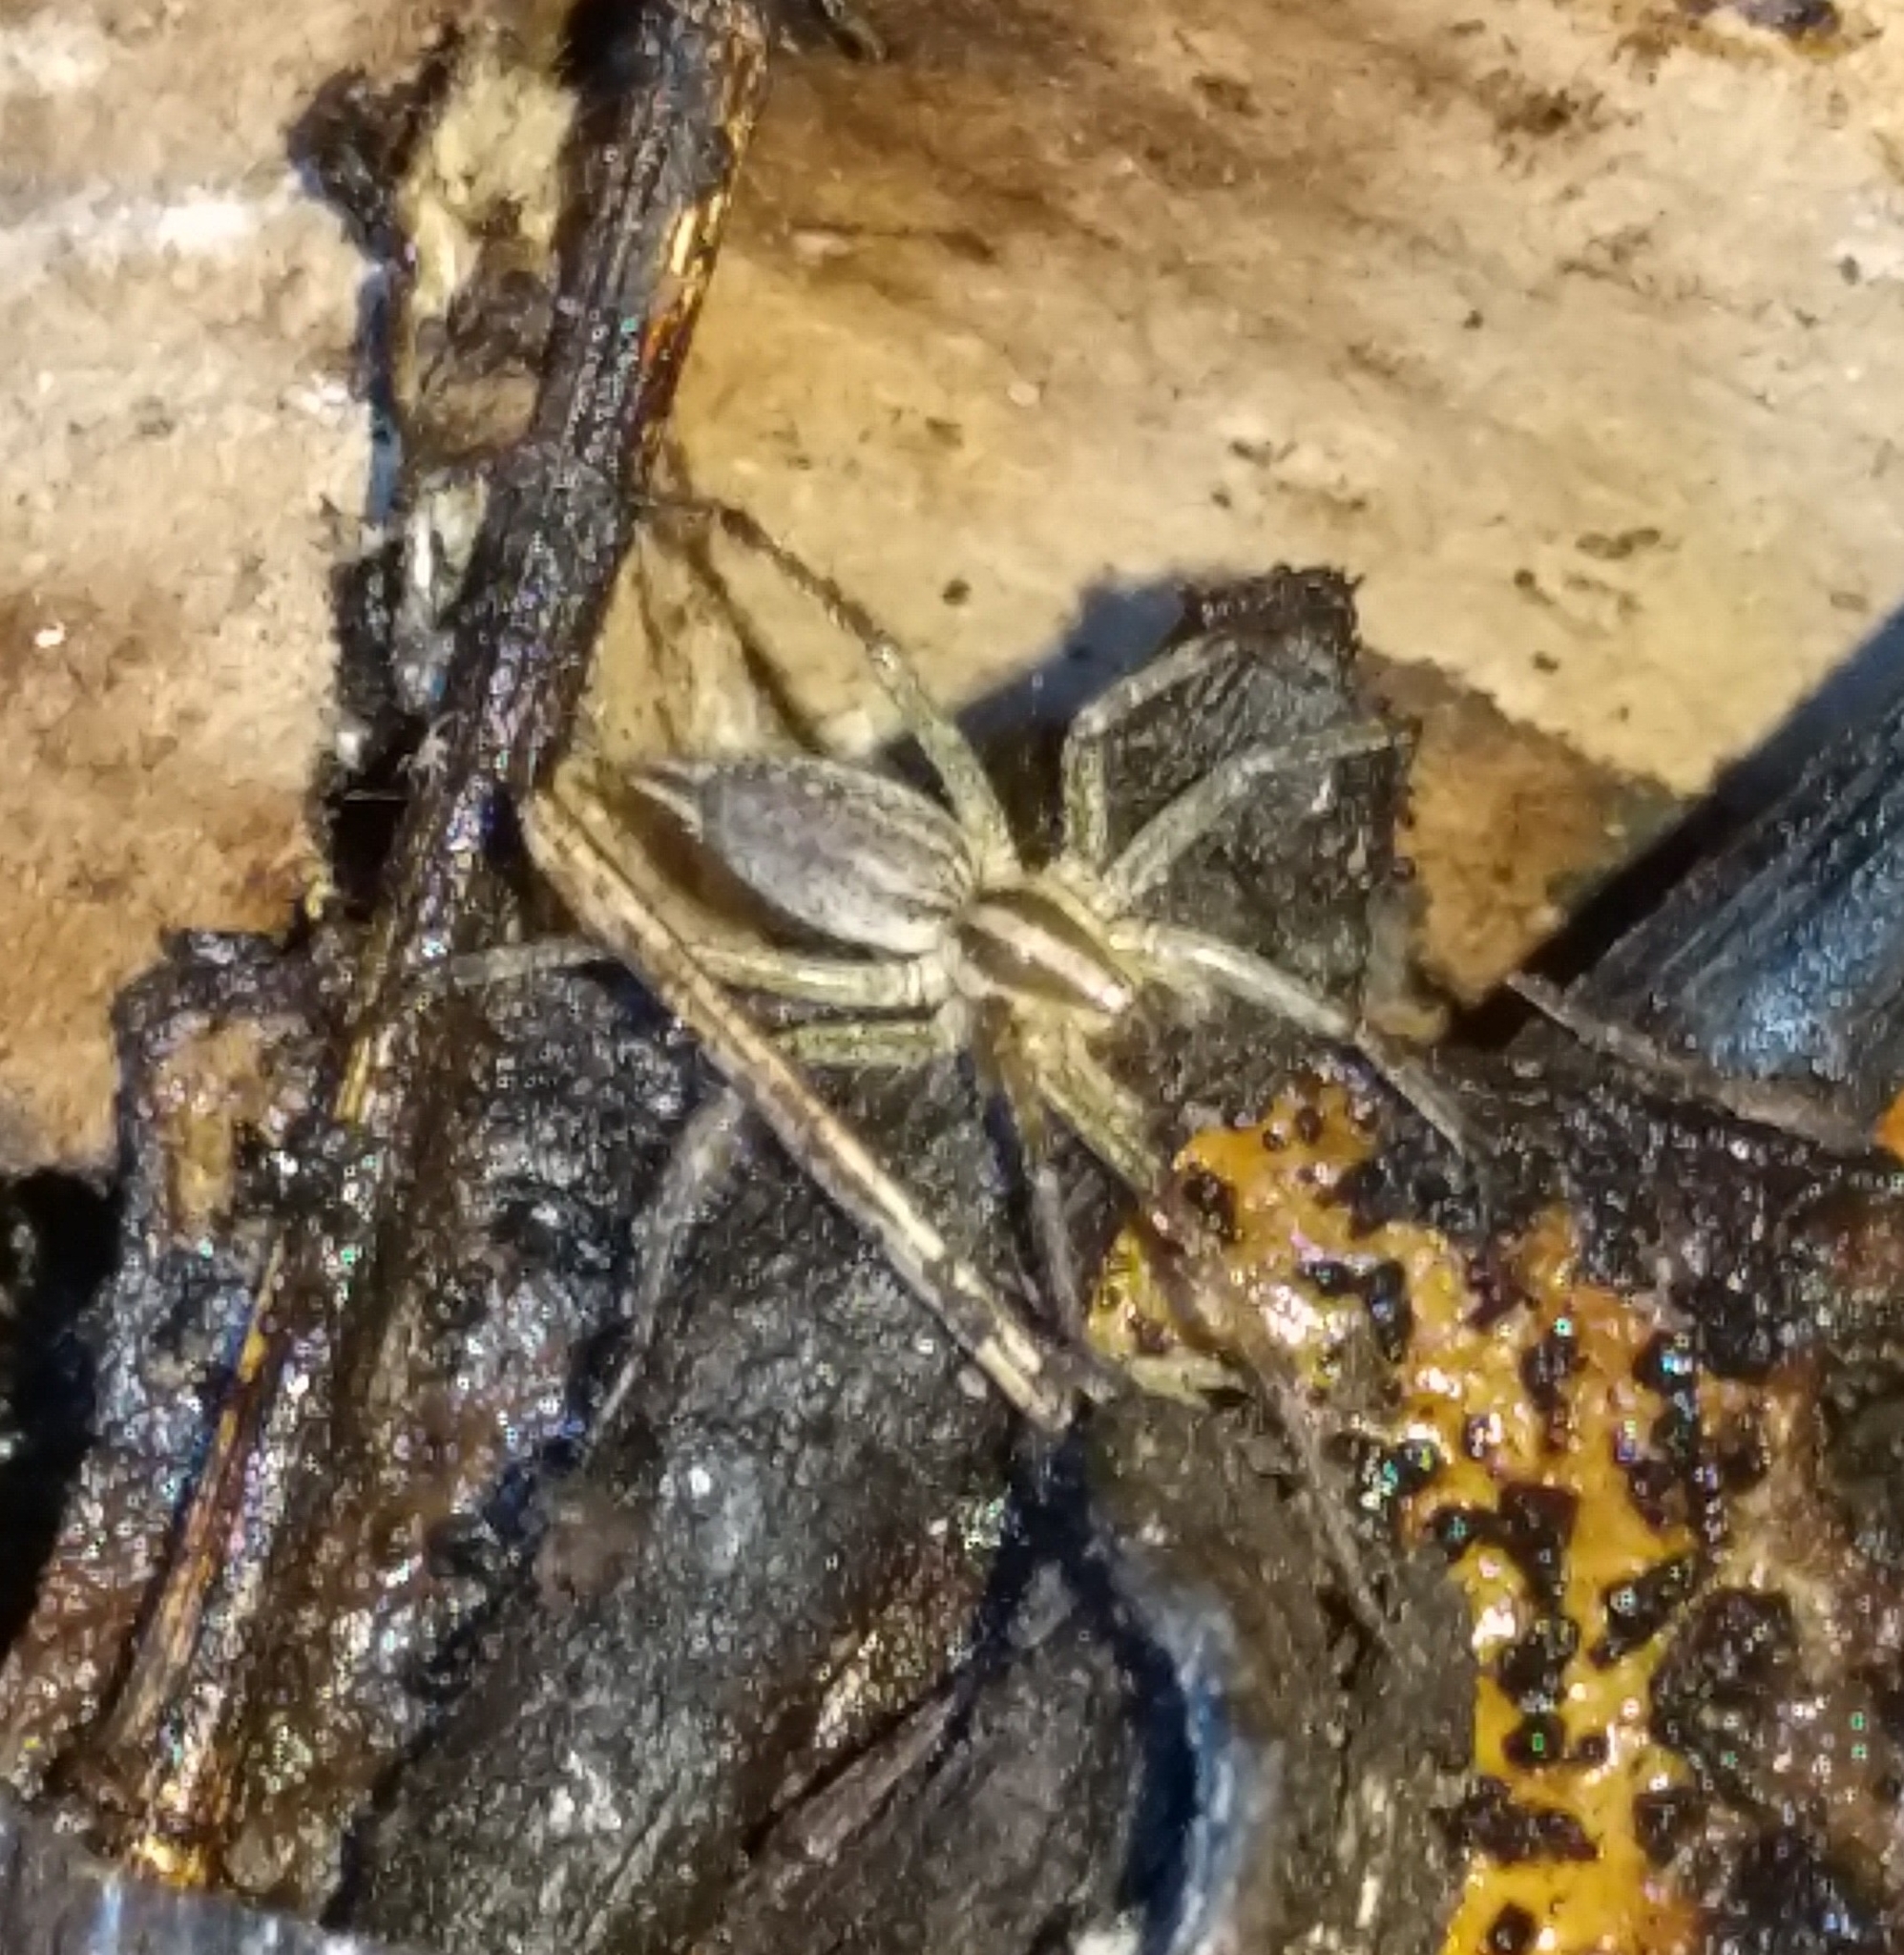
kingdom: Animalia
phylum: Arthropoda
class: Arachnida
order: Araneae
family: Agelenidae
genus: Agelenopsis
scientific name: Agelenopsis
